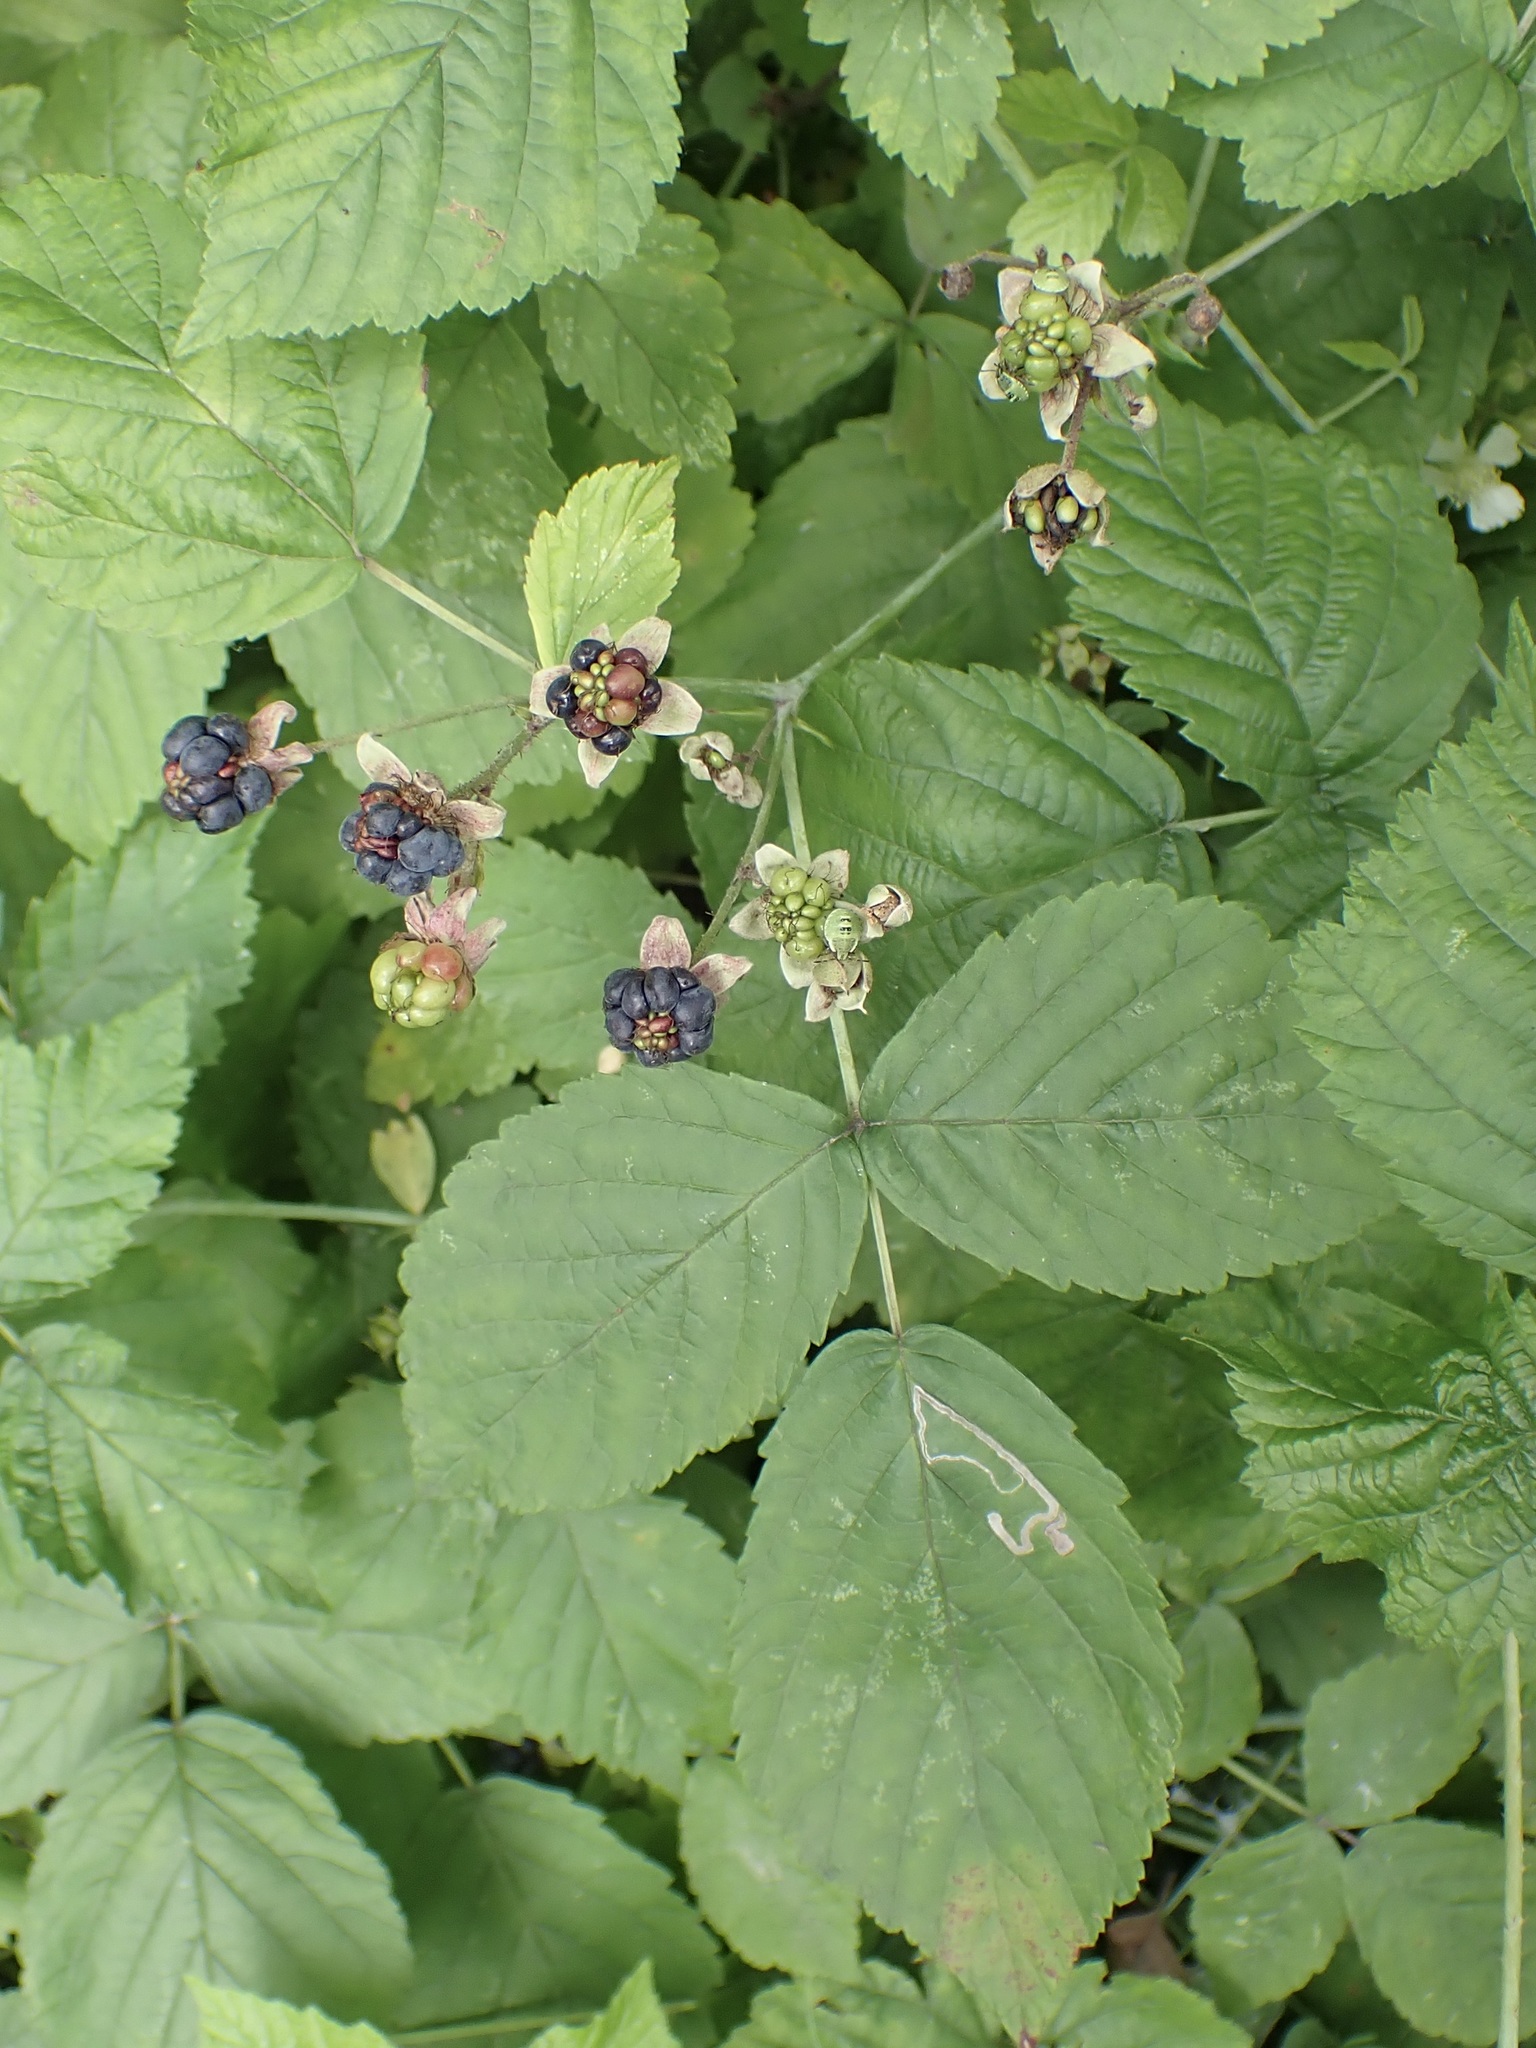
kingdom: Plantae
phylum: Tracheophyta
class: Magnoliopsida
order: Rosales
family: Rosaceae
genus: Rubus
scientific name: Rubus caesius
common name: Dewberry
